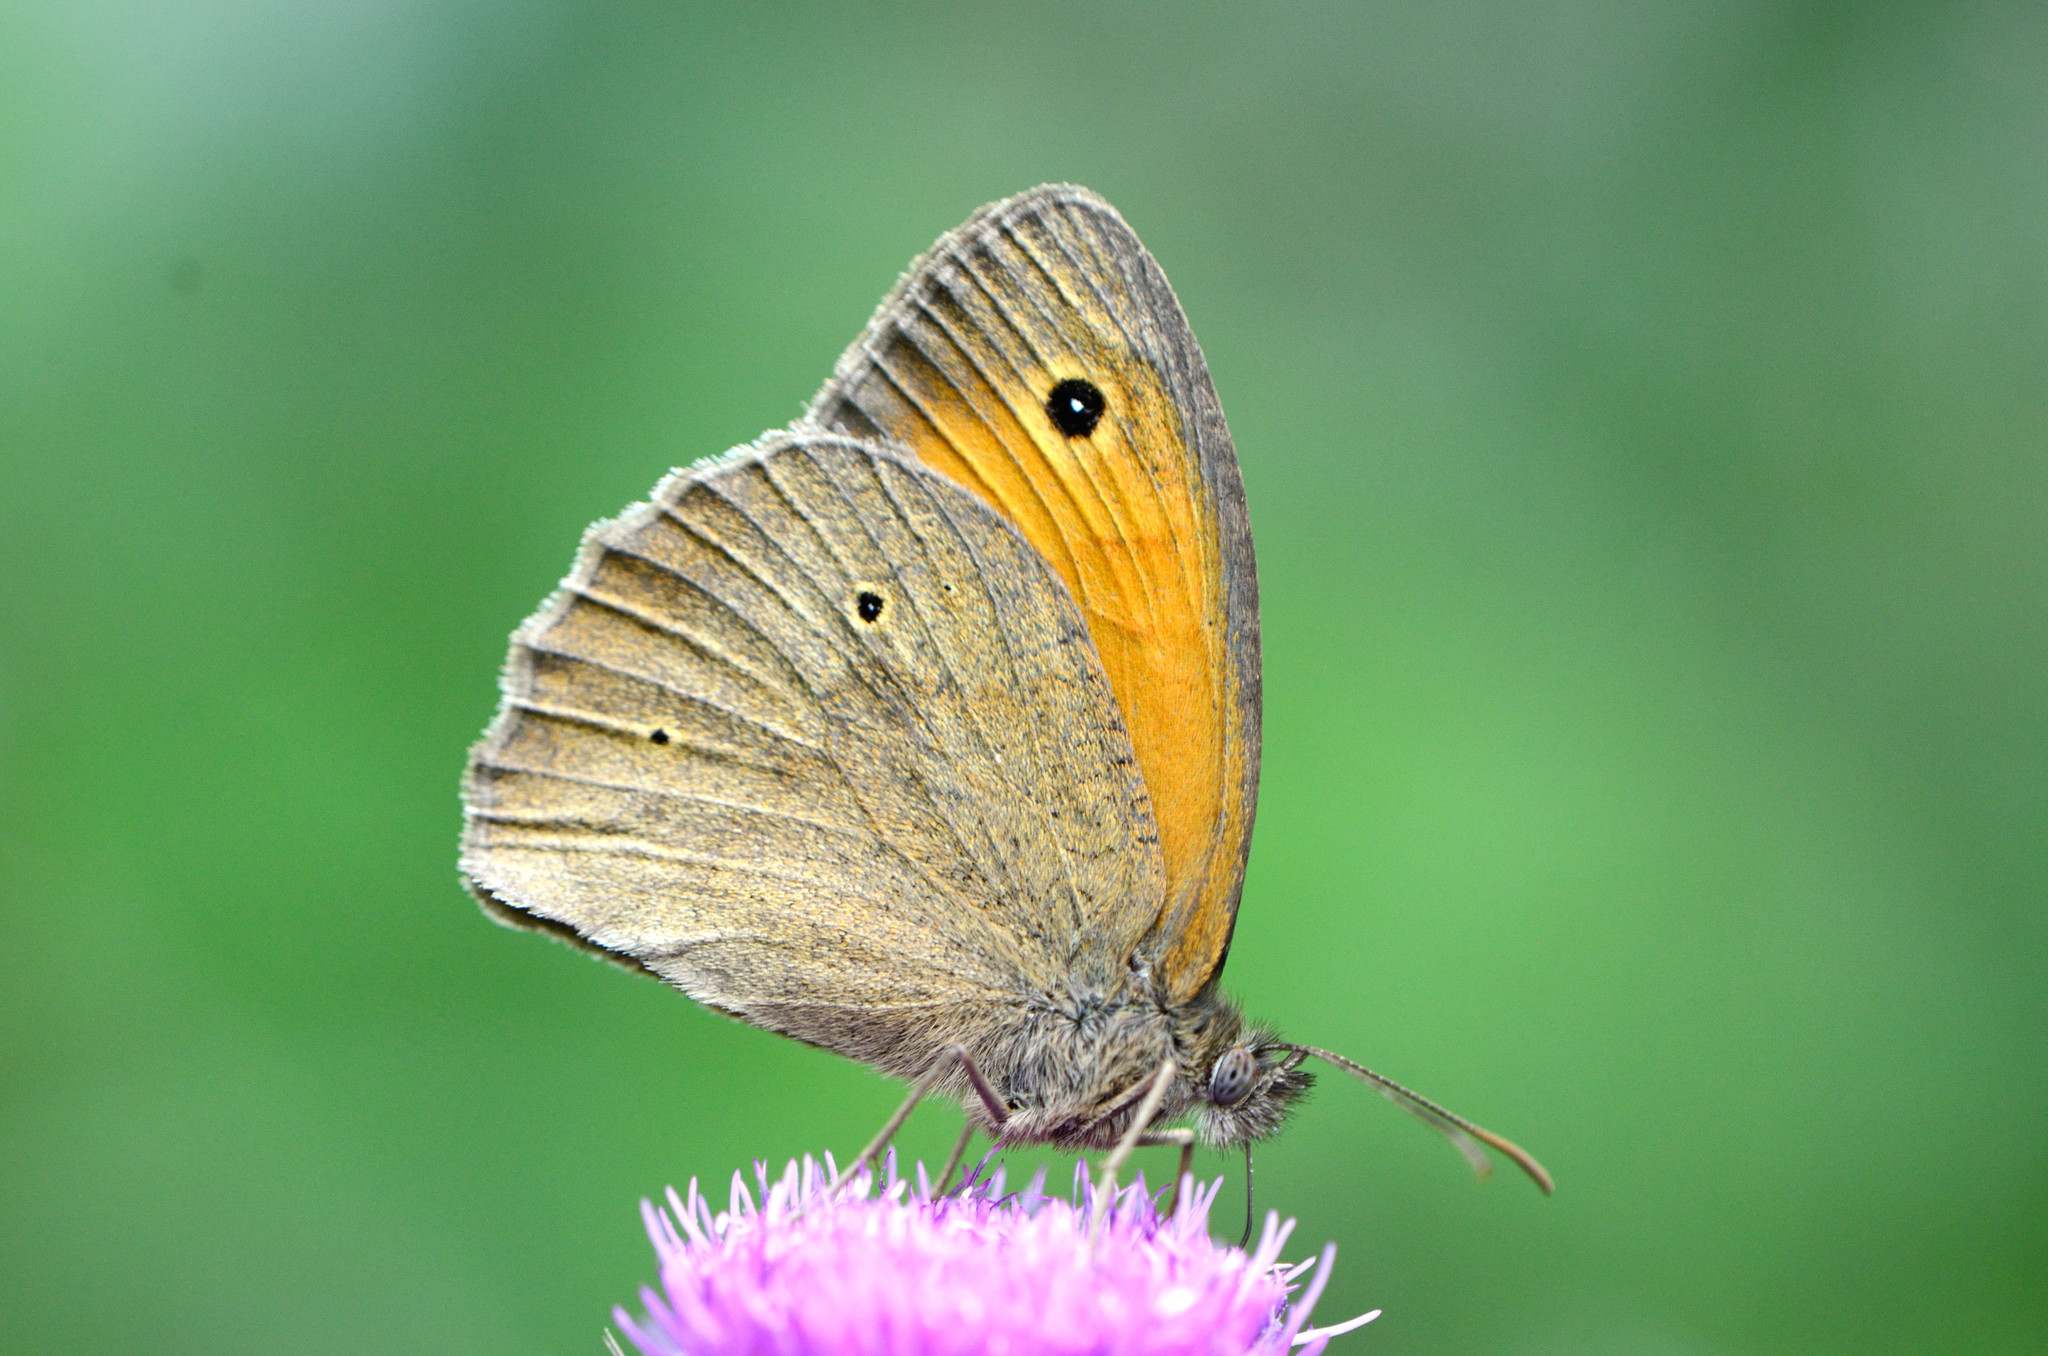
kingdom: Animalia
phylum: Arthropoda
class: Insecta
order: Lepidoptera
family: Nymphalidae
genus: Maniola
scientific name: Maniola jurtina
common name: Meadow brown
